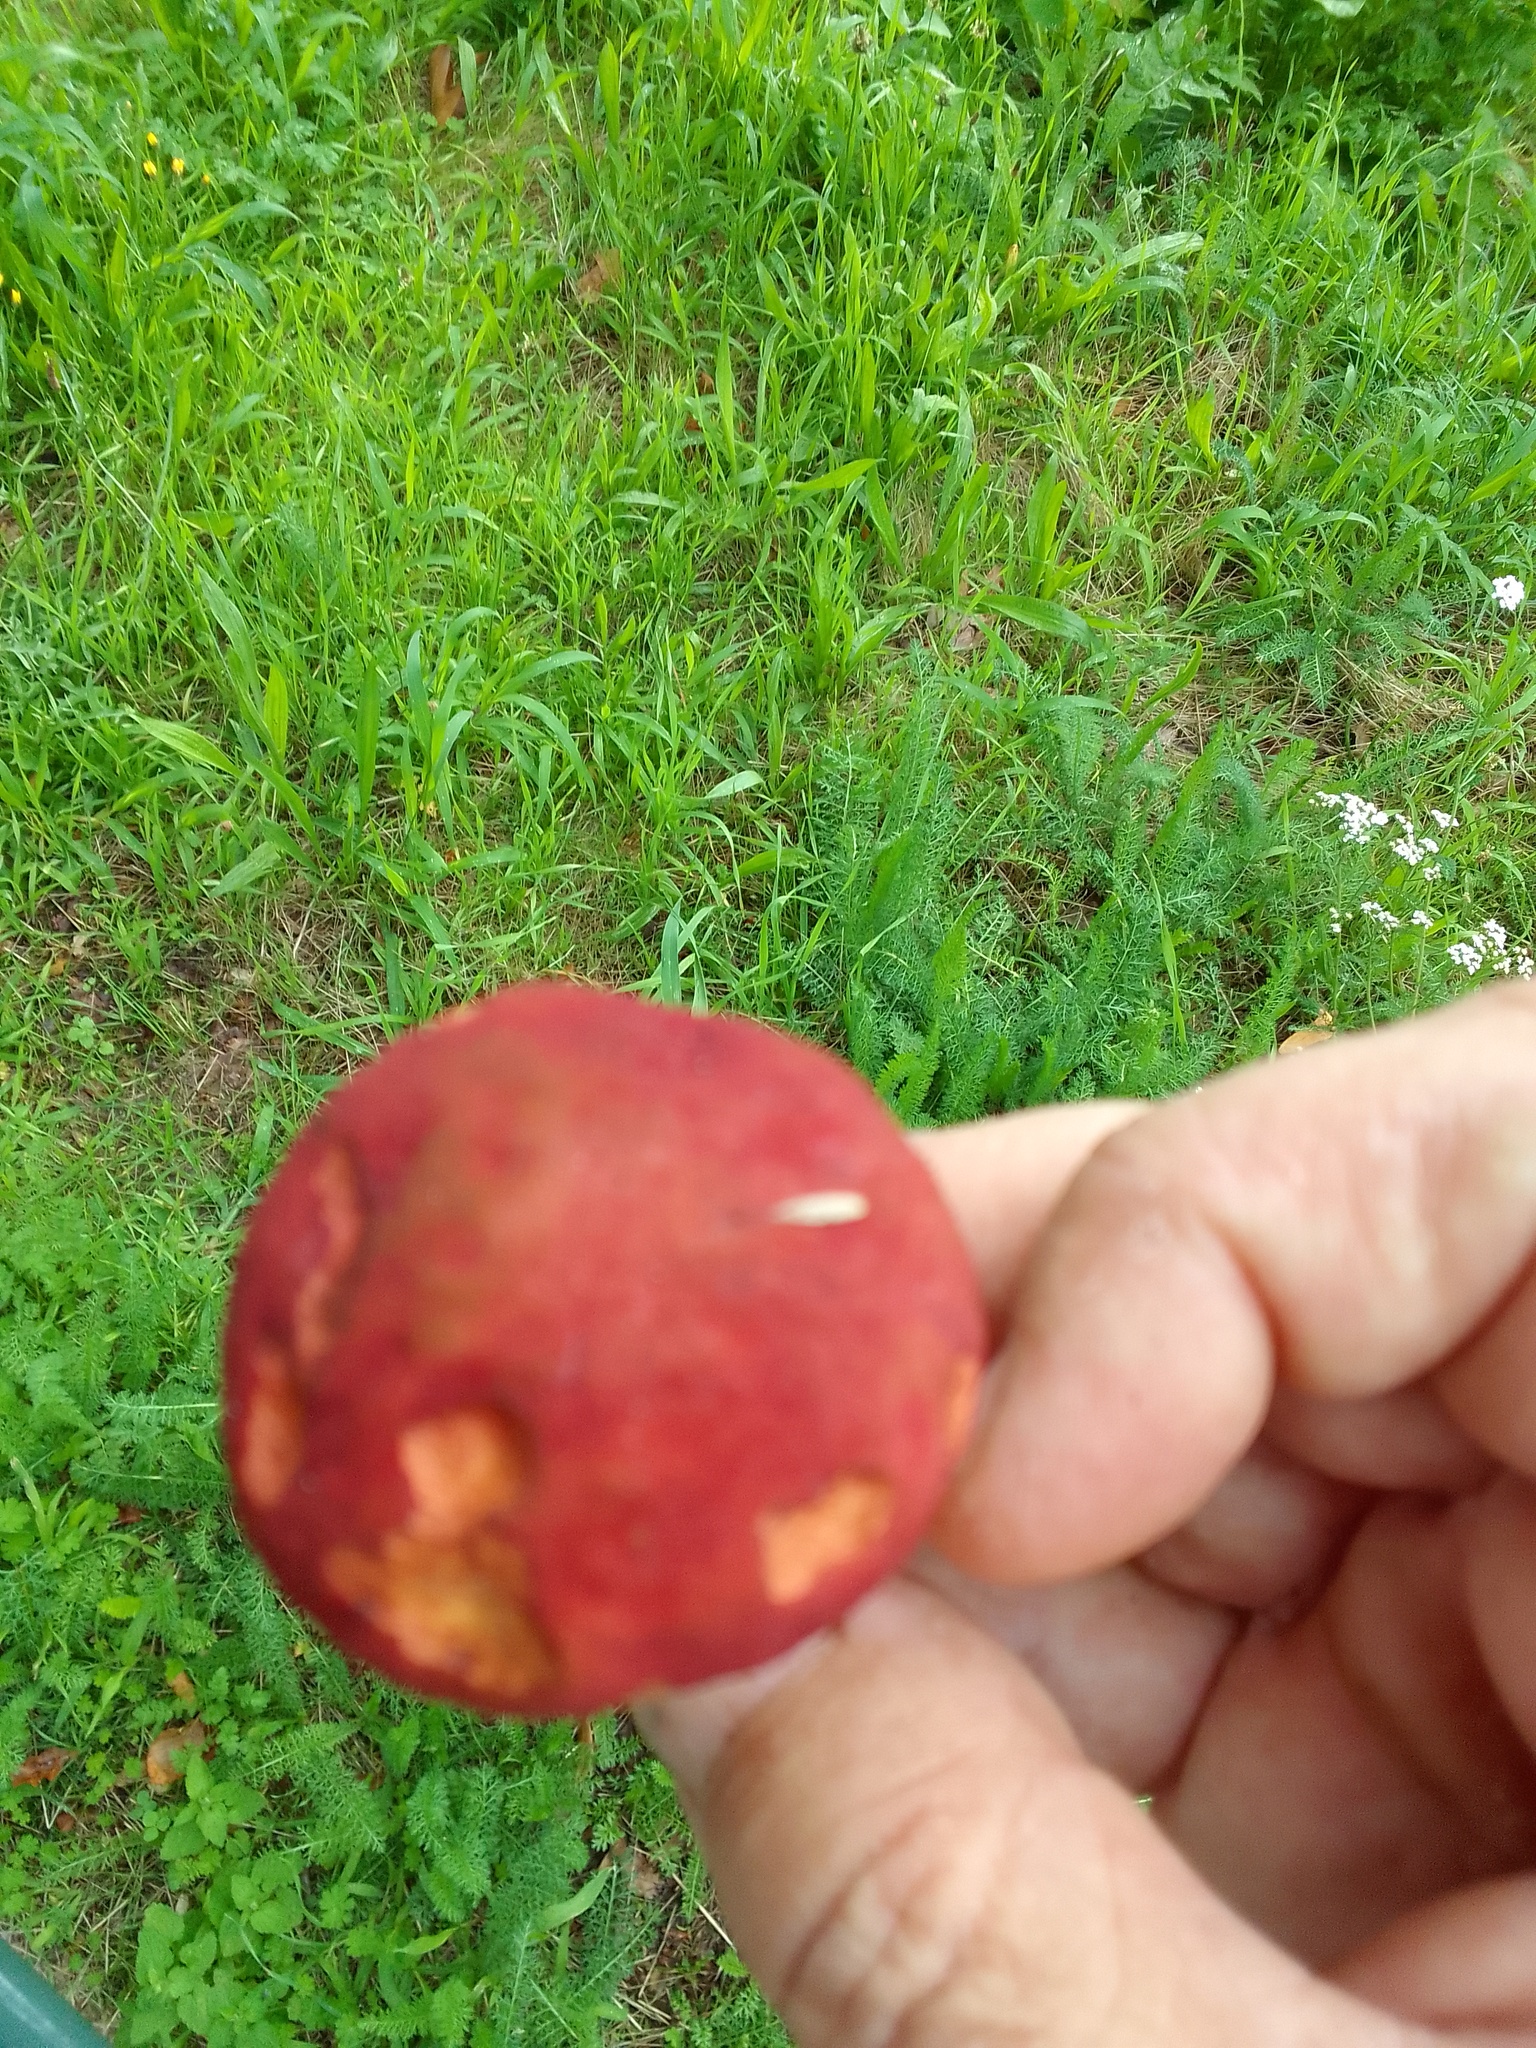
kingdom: Fungi
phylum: Basidiomycota
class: Agaricomycetes
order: Boletales
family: Boletaceae
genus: Hortiboletus
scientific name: Hortiboletus rubellus
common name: Ruby bolete
